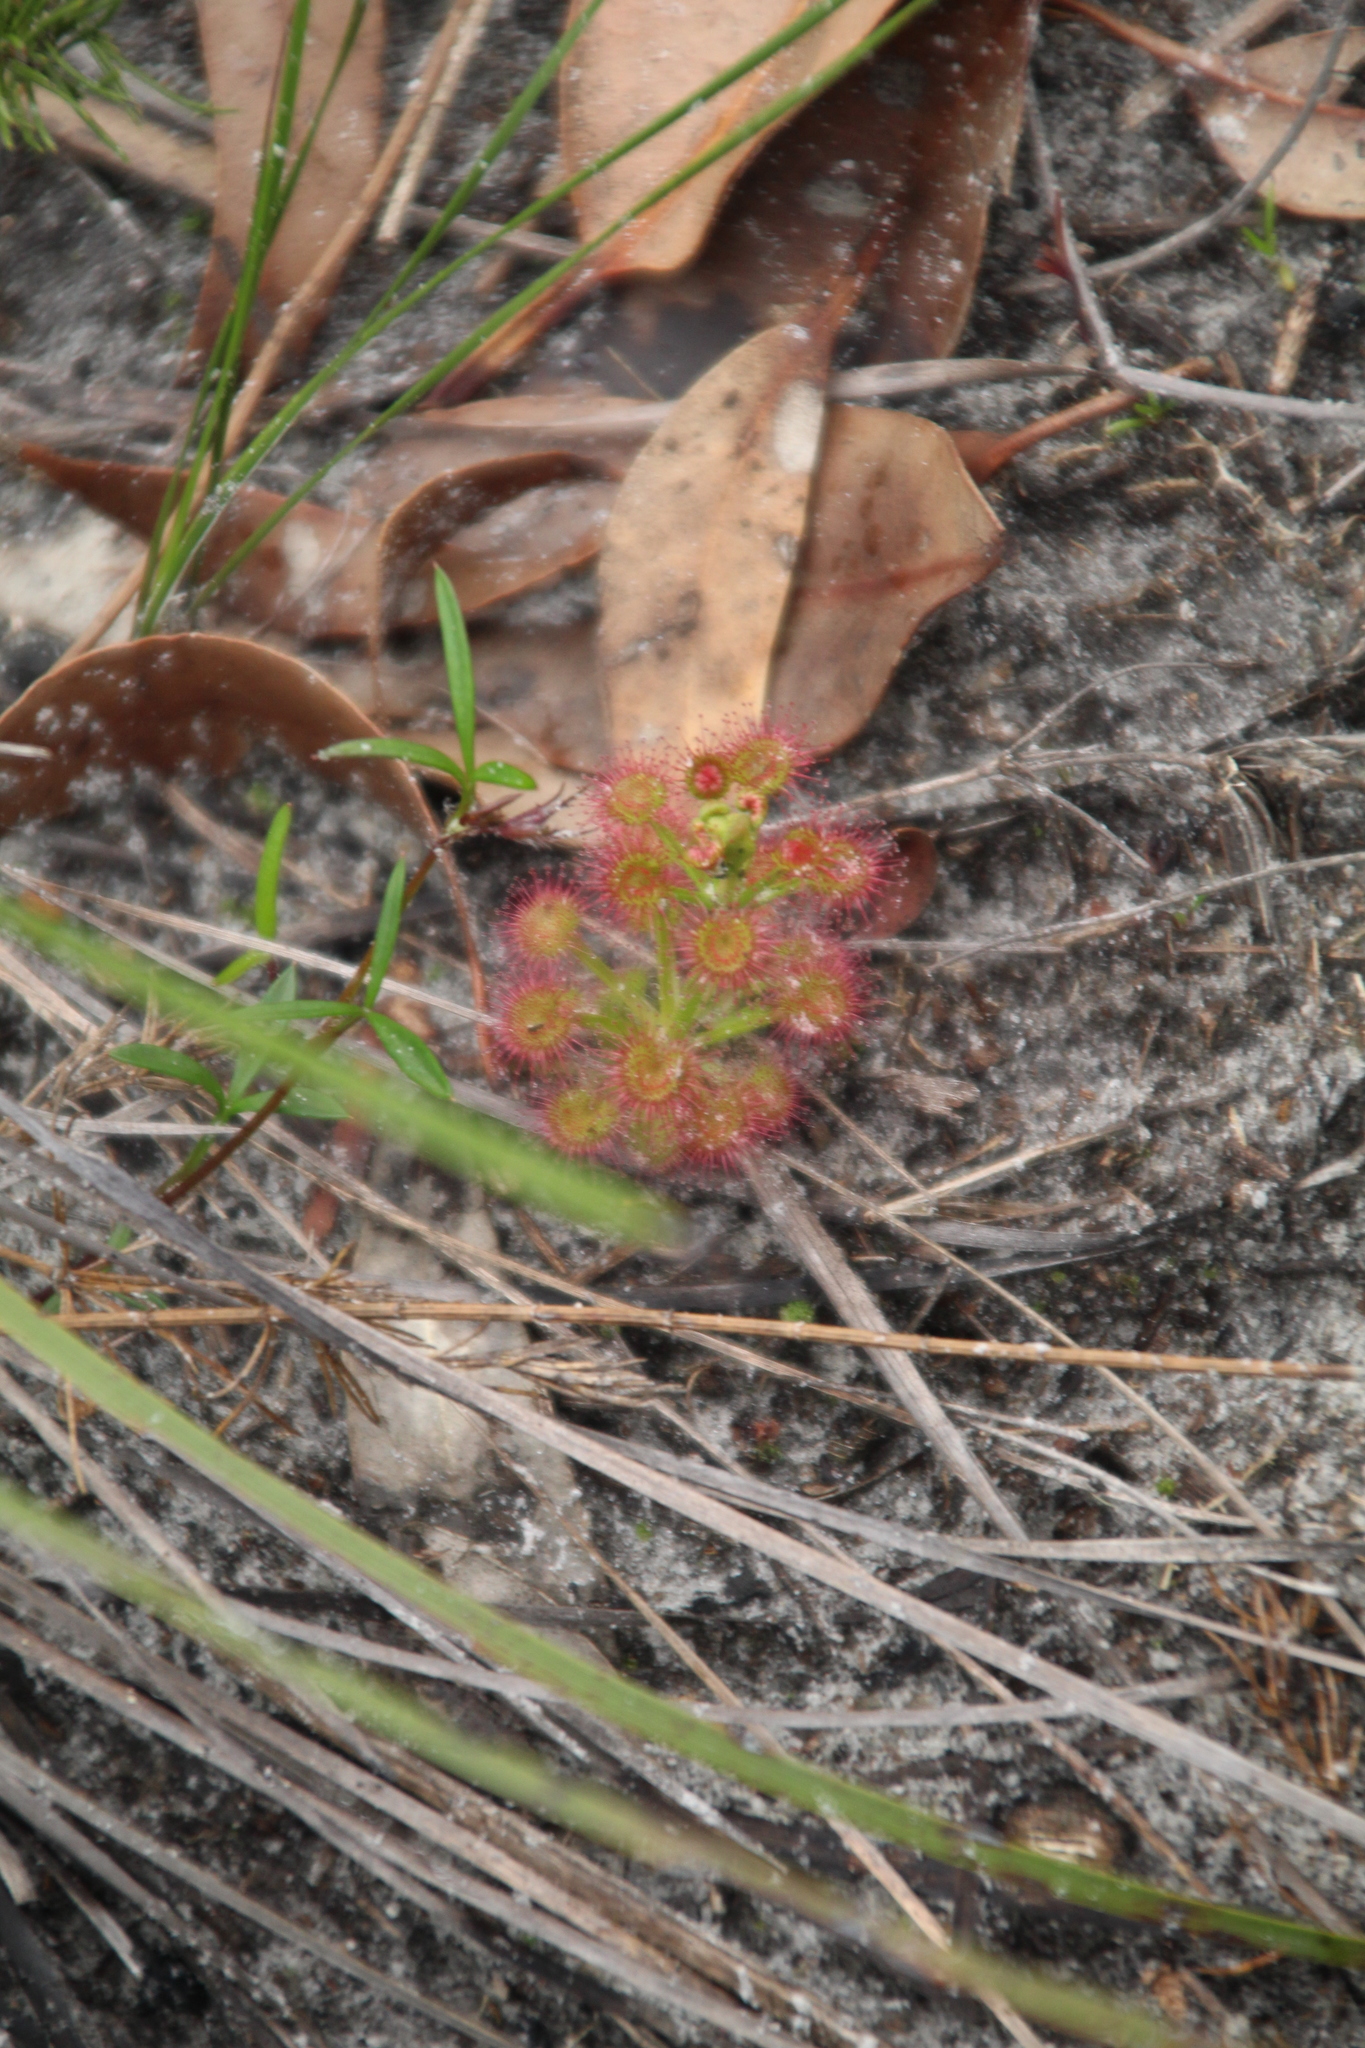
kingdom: Plantae
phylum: Tracheophyta
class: Magnoliopsida
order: Caryophyllales
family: Droseraceae
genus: Drosera
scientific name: Drosera stolonifera
